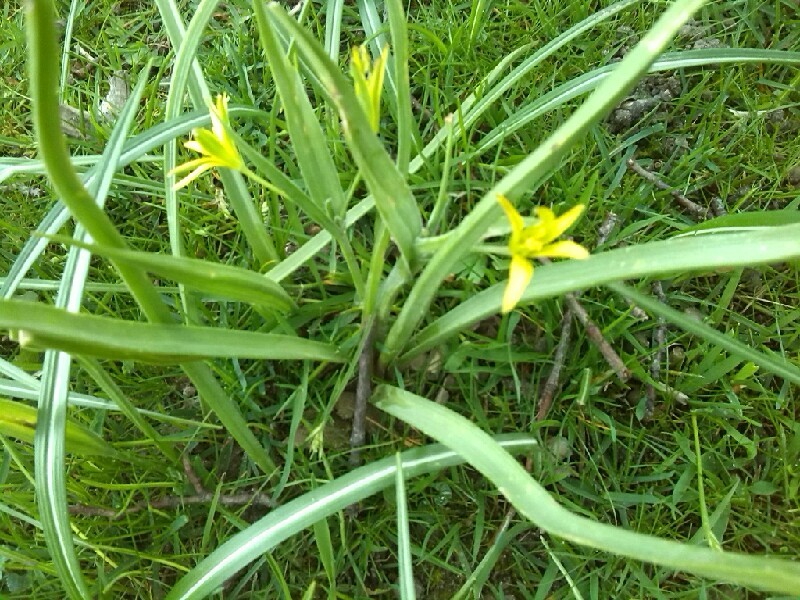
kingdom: Plantae
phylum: Tracheophyta
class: Liliopsida
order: Liliales
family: Liliaceae
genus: Gagea
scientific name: Gagea pratensis
